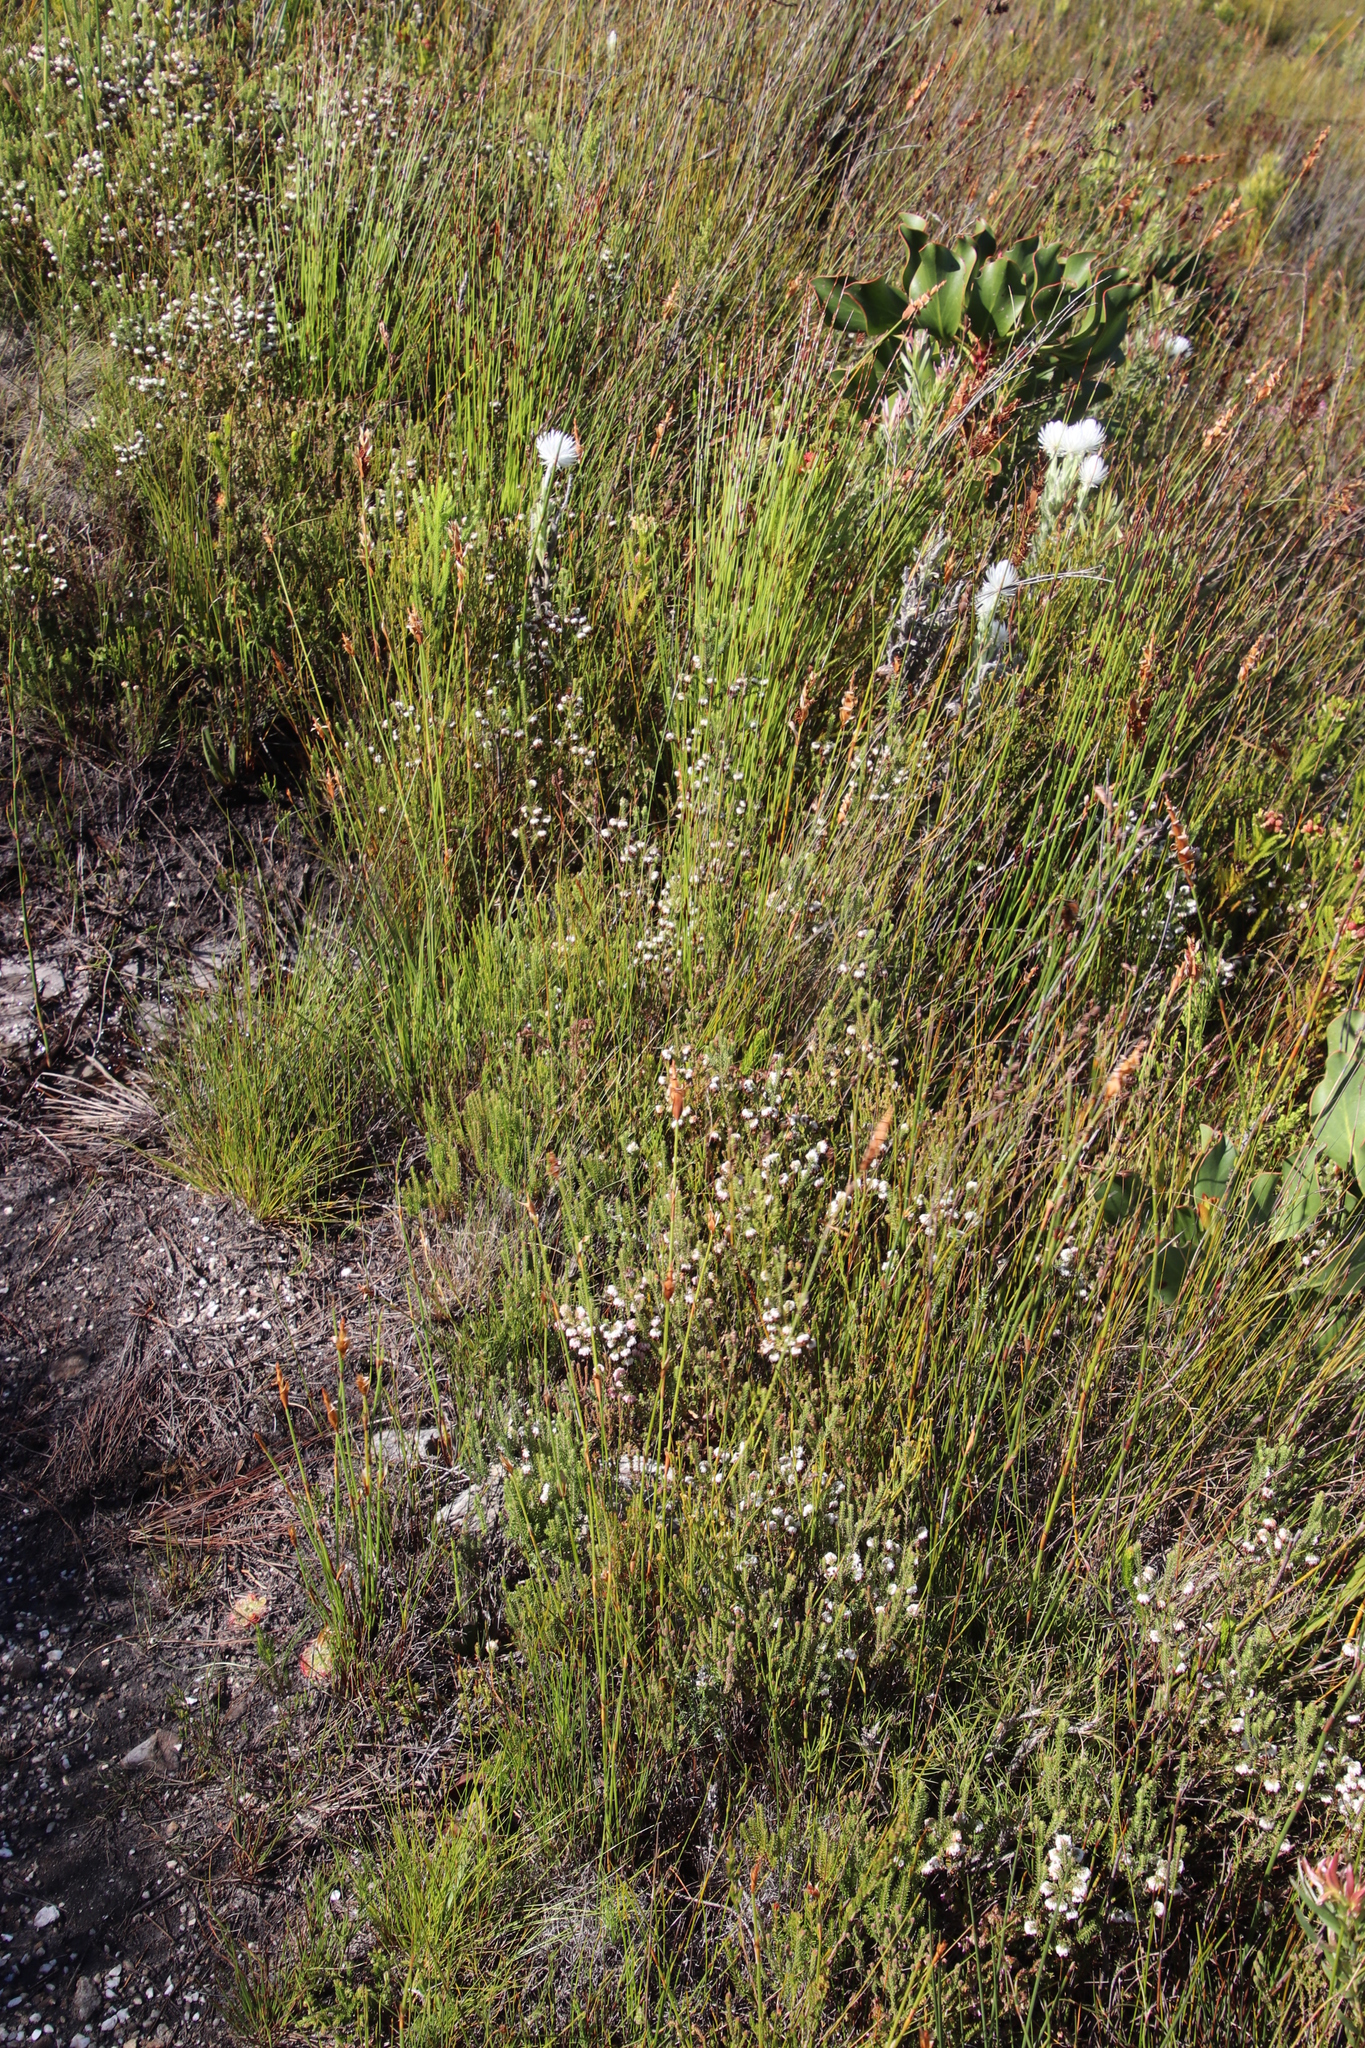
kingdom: Plantae
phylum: Tracheophyta
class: Magnoliopsida
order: Ericales
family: Ericaceae
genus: Erica
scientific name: Erica cumuliflora
